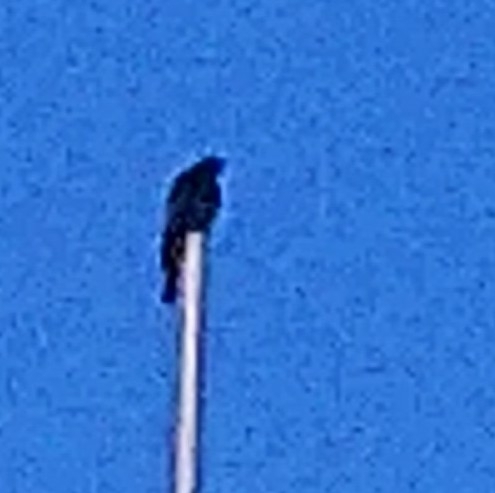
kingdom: Animalia
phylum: Chordata
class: Aves
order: Passeriformes
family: Muscicapidae
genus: Phoenicurus
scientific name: Phoenicurus ochruros
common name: Black redstart
